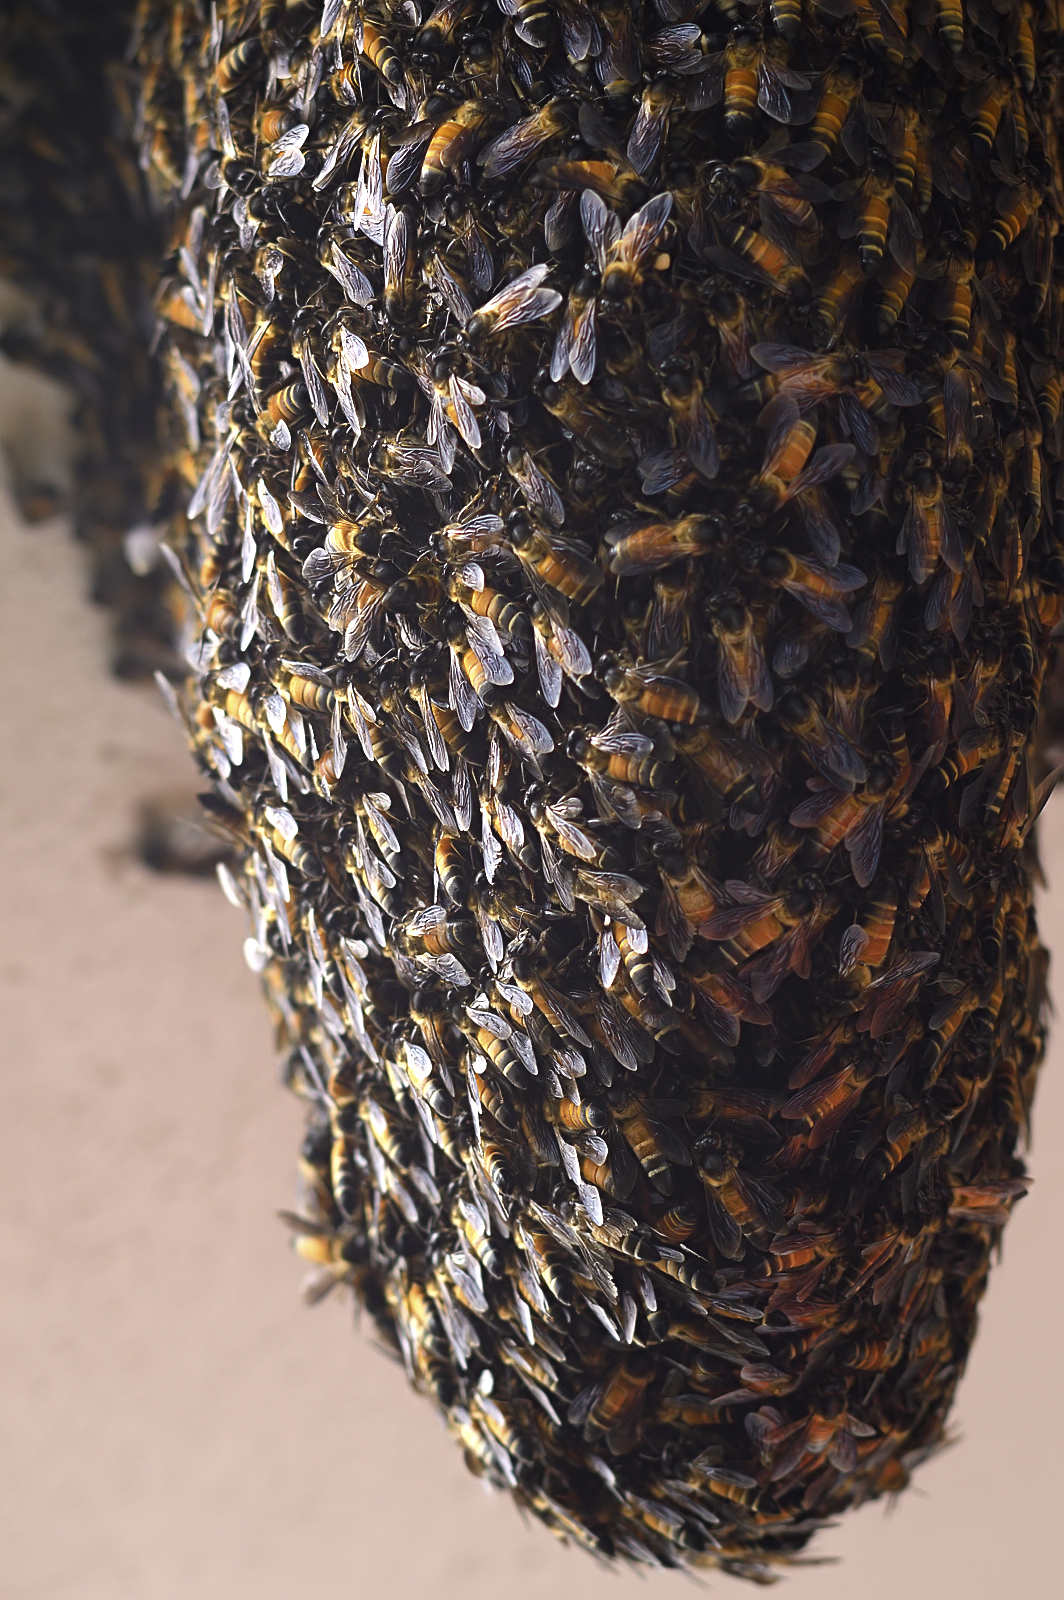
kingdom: Animalia
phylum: Arthropoda
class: Insecta
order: Hymenoptera
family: Apidae
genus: Apis
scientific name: Apis dorsata
